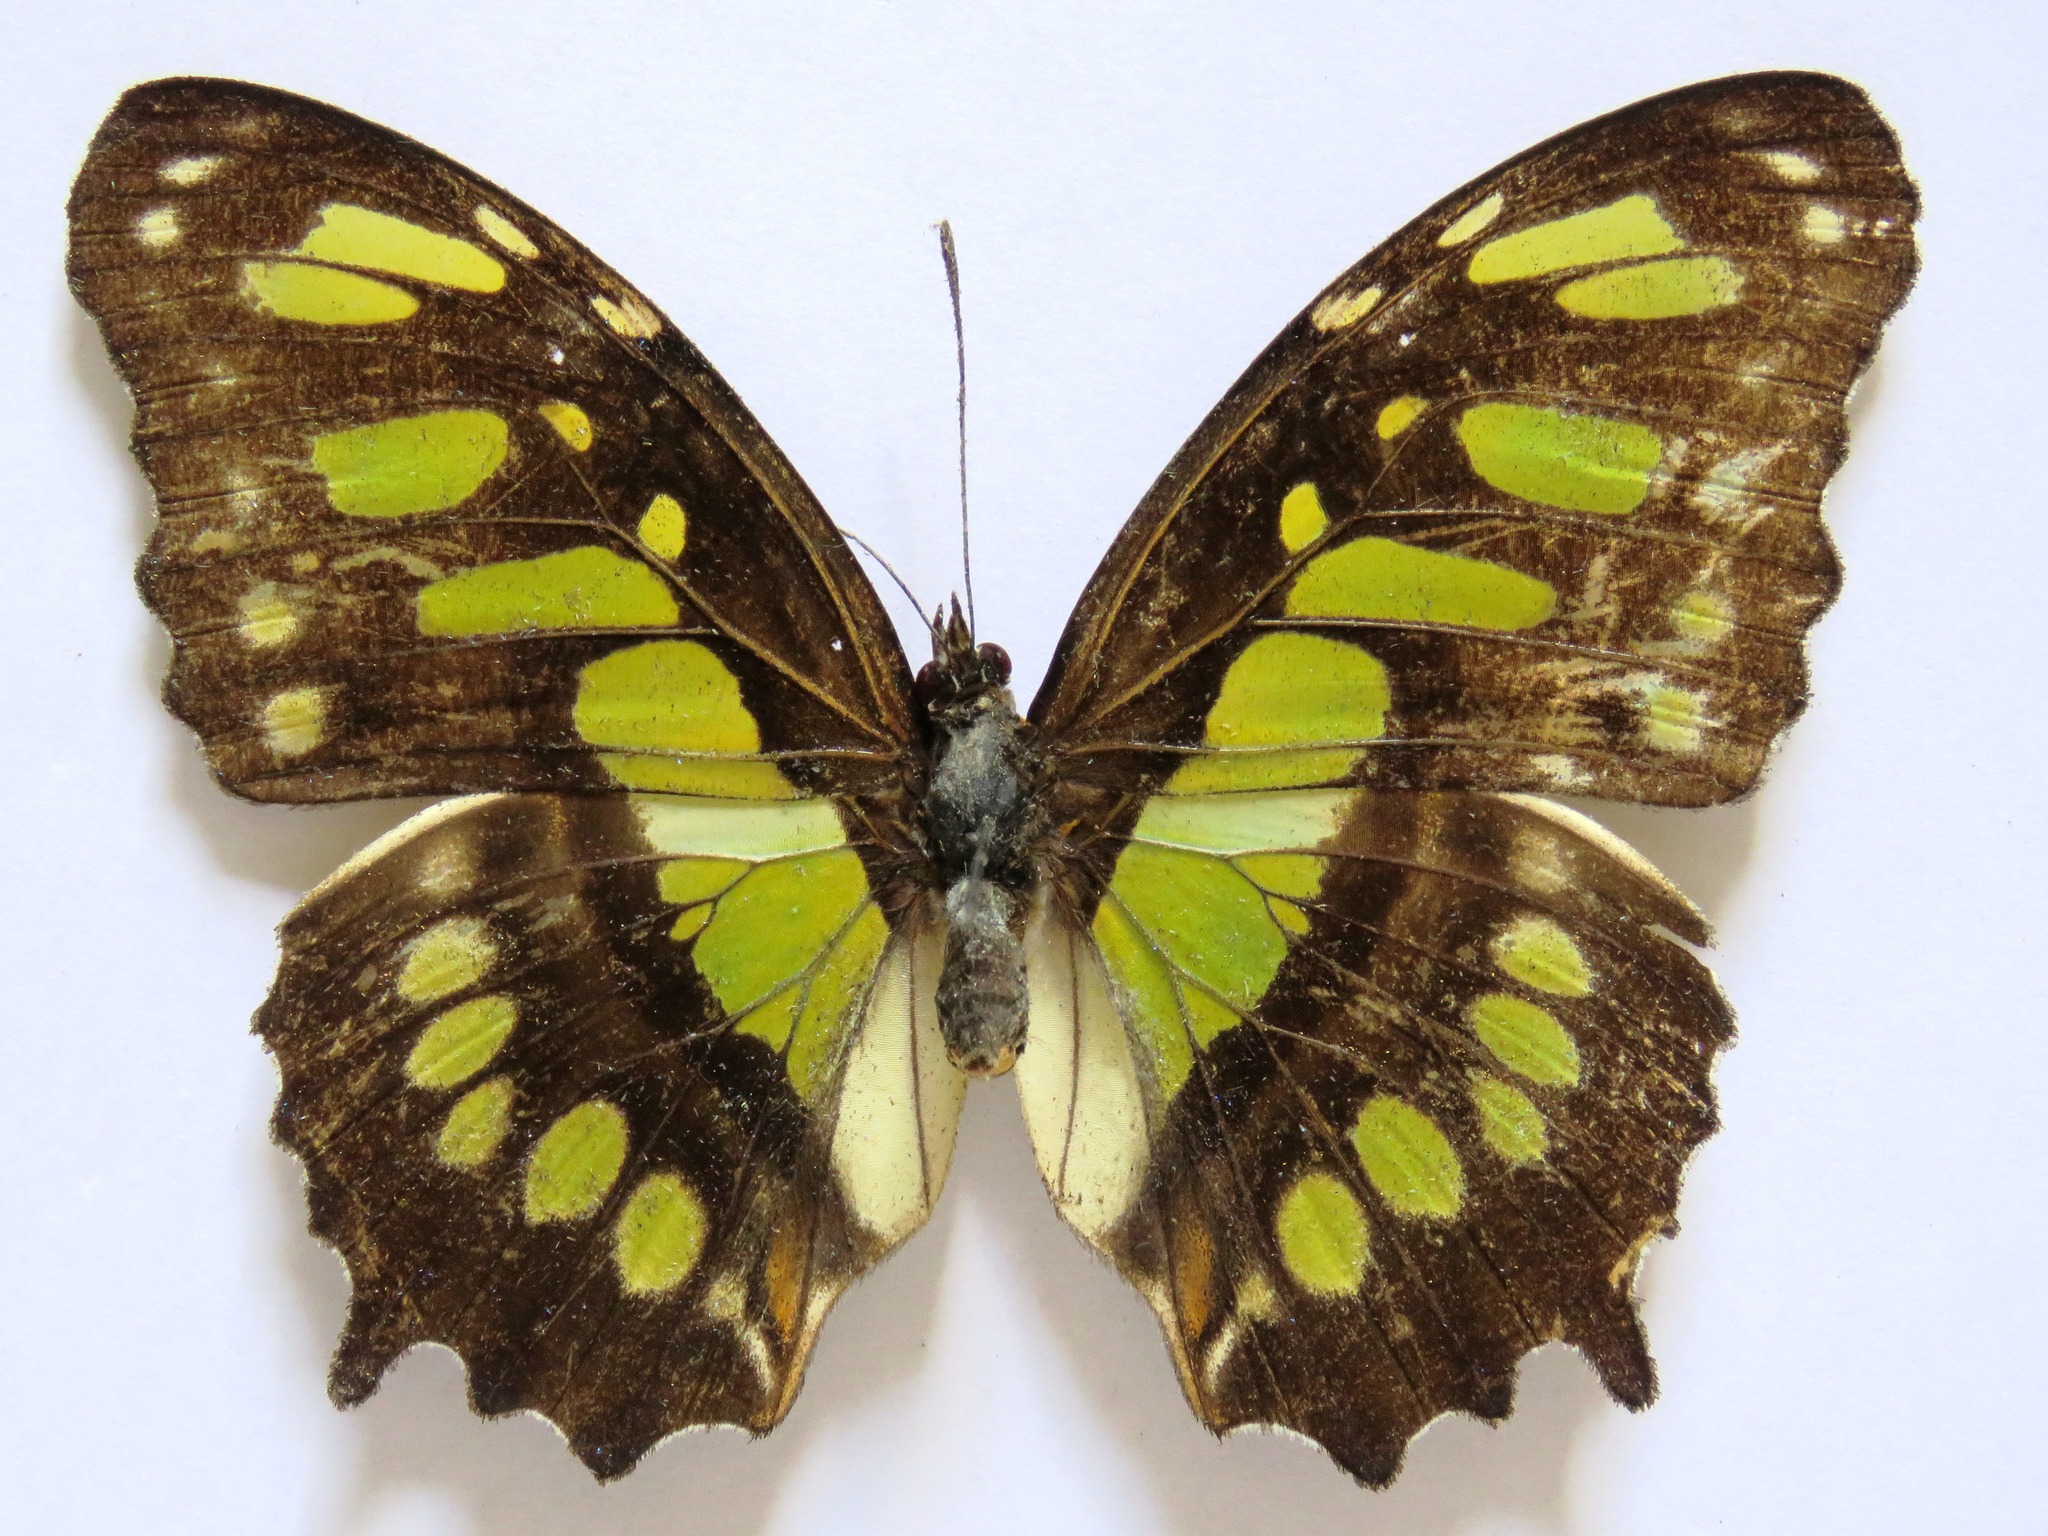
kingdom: Animalia
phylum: Arthropoda
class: Insecta
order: Lepidoptera
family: Nymphalidae
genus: Siproeta
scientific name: Siproeta stelenes
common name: Malachite
